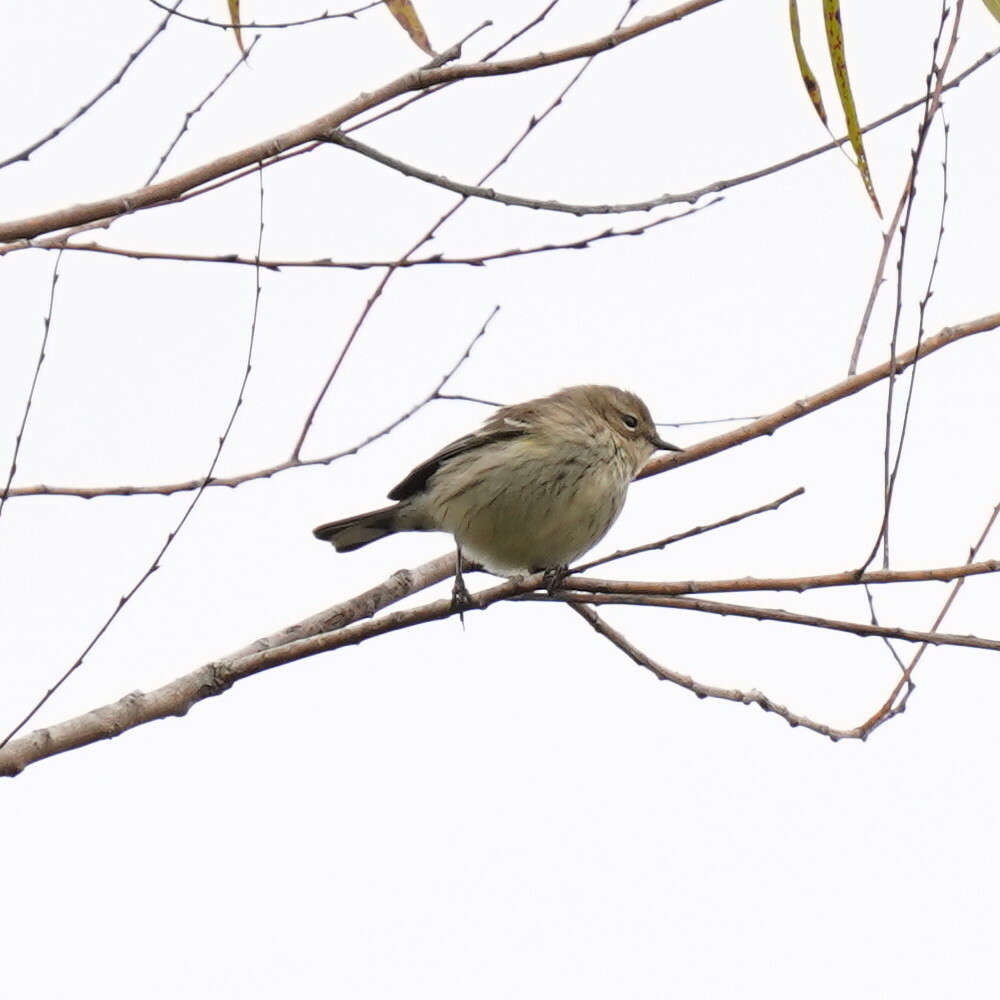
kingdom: Animalia
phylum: Chordata
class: Aves
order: Passeriformes
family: Parulidae
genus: Setophaga
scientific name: Setophaga coronata
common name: Myrtle warbler
